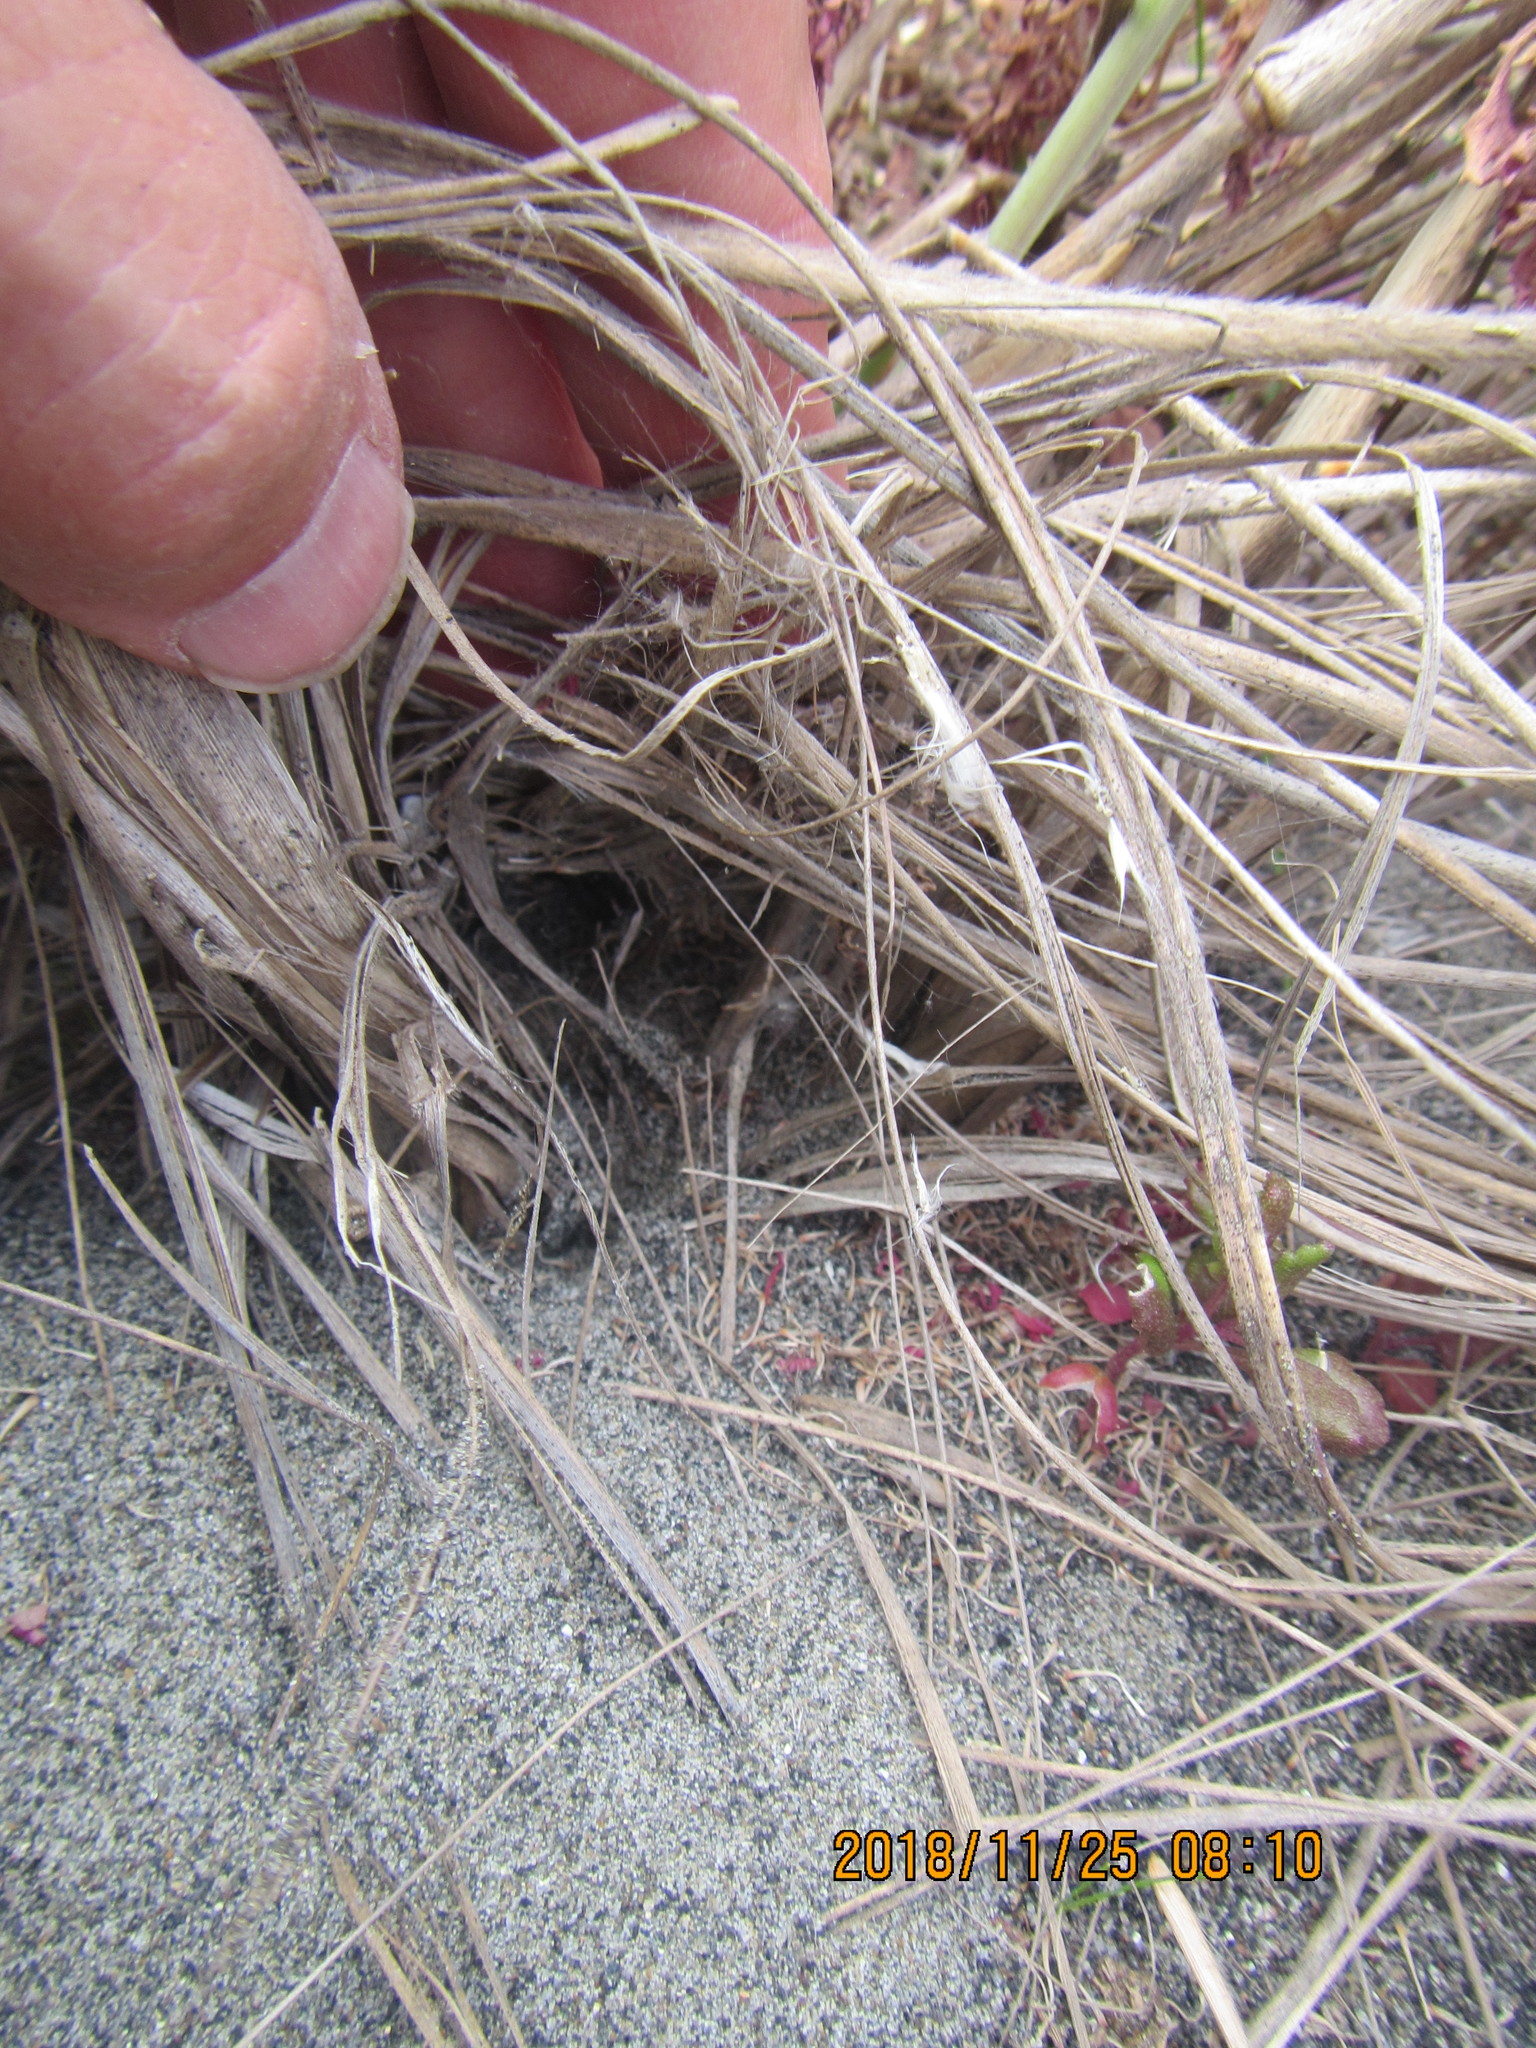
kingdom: Animalia
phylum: Arthropoda
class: Arachnida
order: Araneae
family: Theridiidae
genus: Latrodectus
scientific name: Latrodectus katipo
